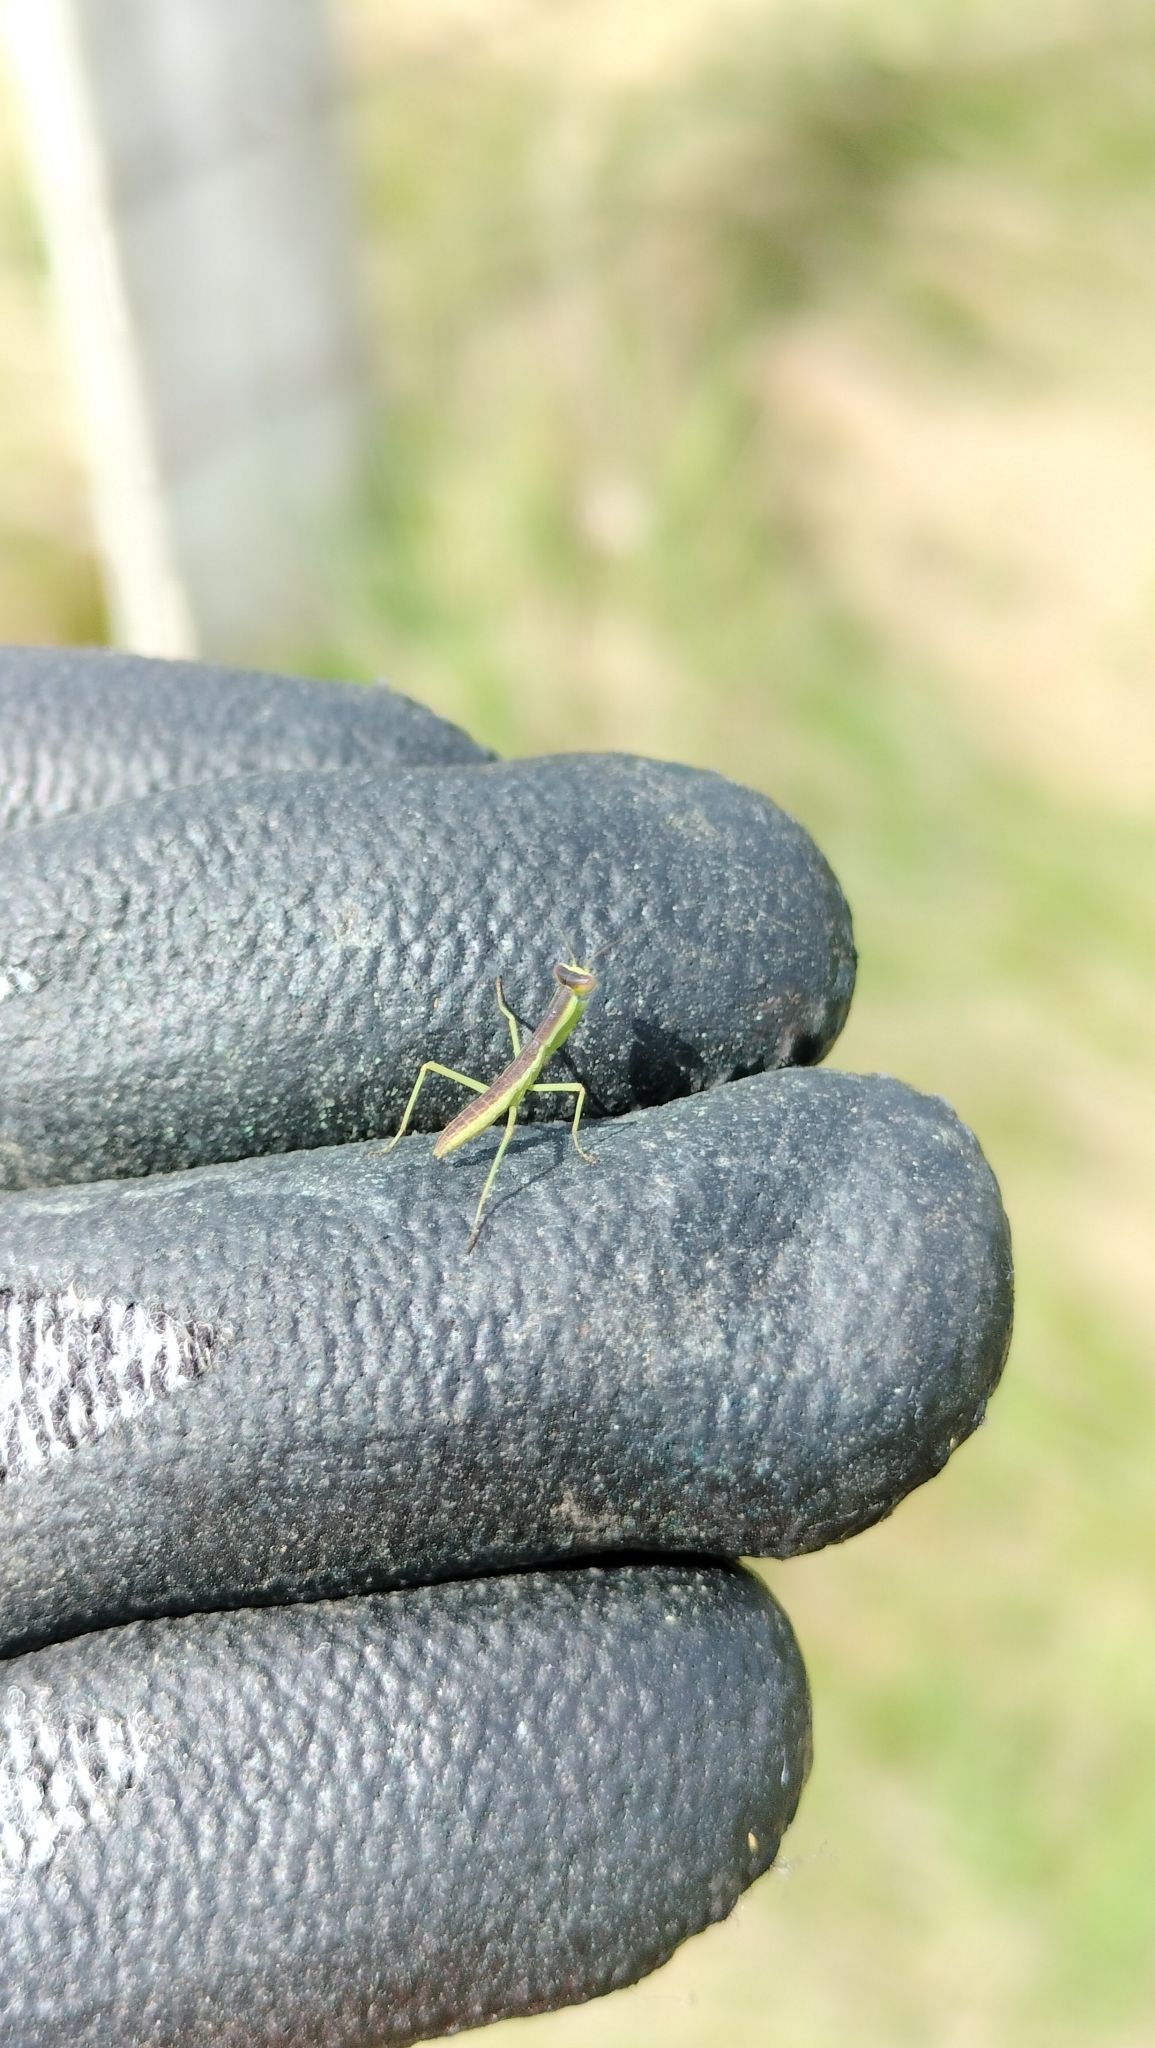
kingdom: Animalia
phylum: Arthropoda
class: Insecta
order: Mantodea
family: Mantidae
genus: Orthodera
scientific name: Orthodera novaezealandiae
